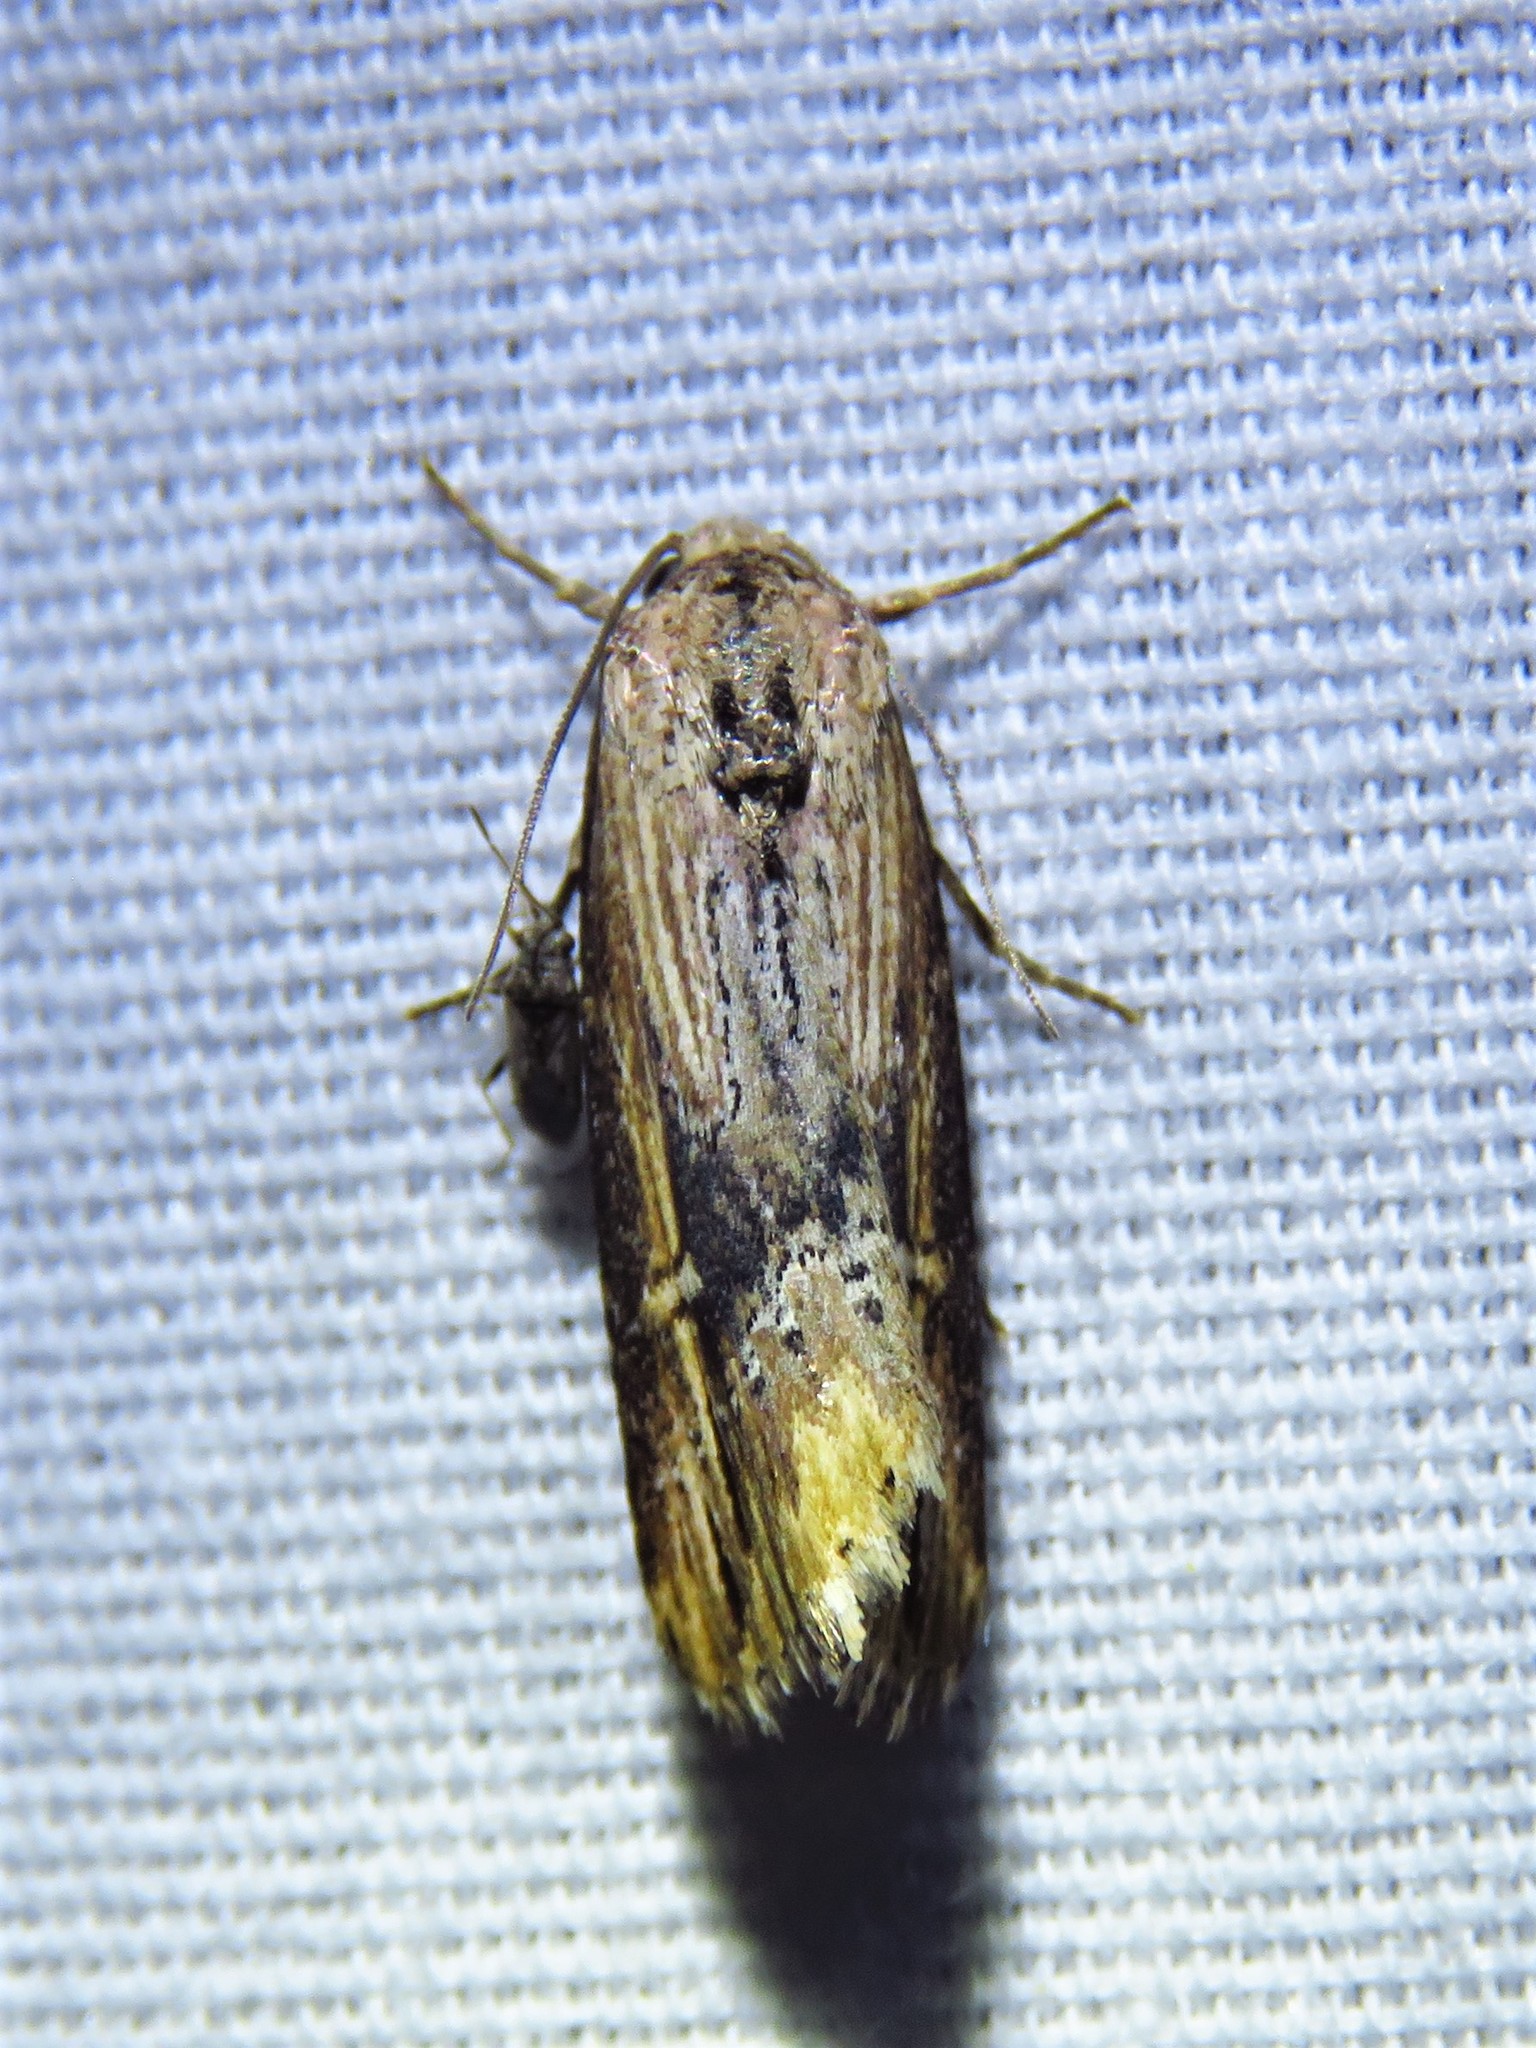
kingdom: Animalia
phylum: Arthropoda
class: Insecta
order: Lepidoptera
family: Noctuidae
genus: Crambodes
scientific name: Crambodes talidiformis
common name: Verbena moth
